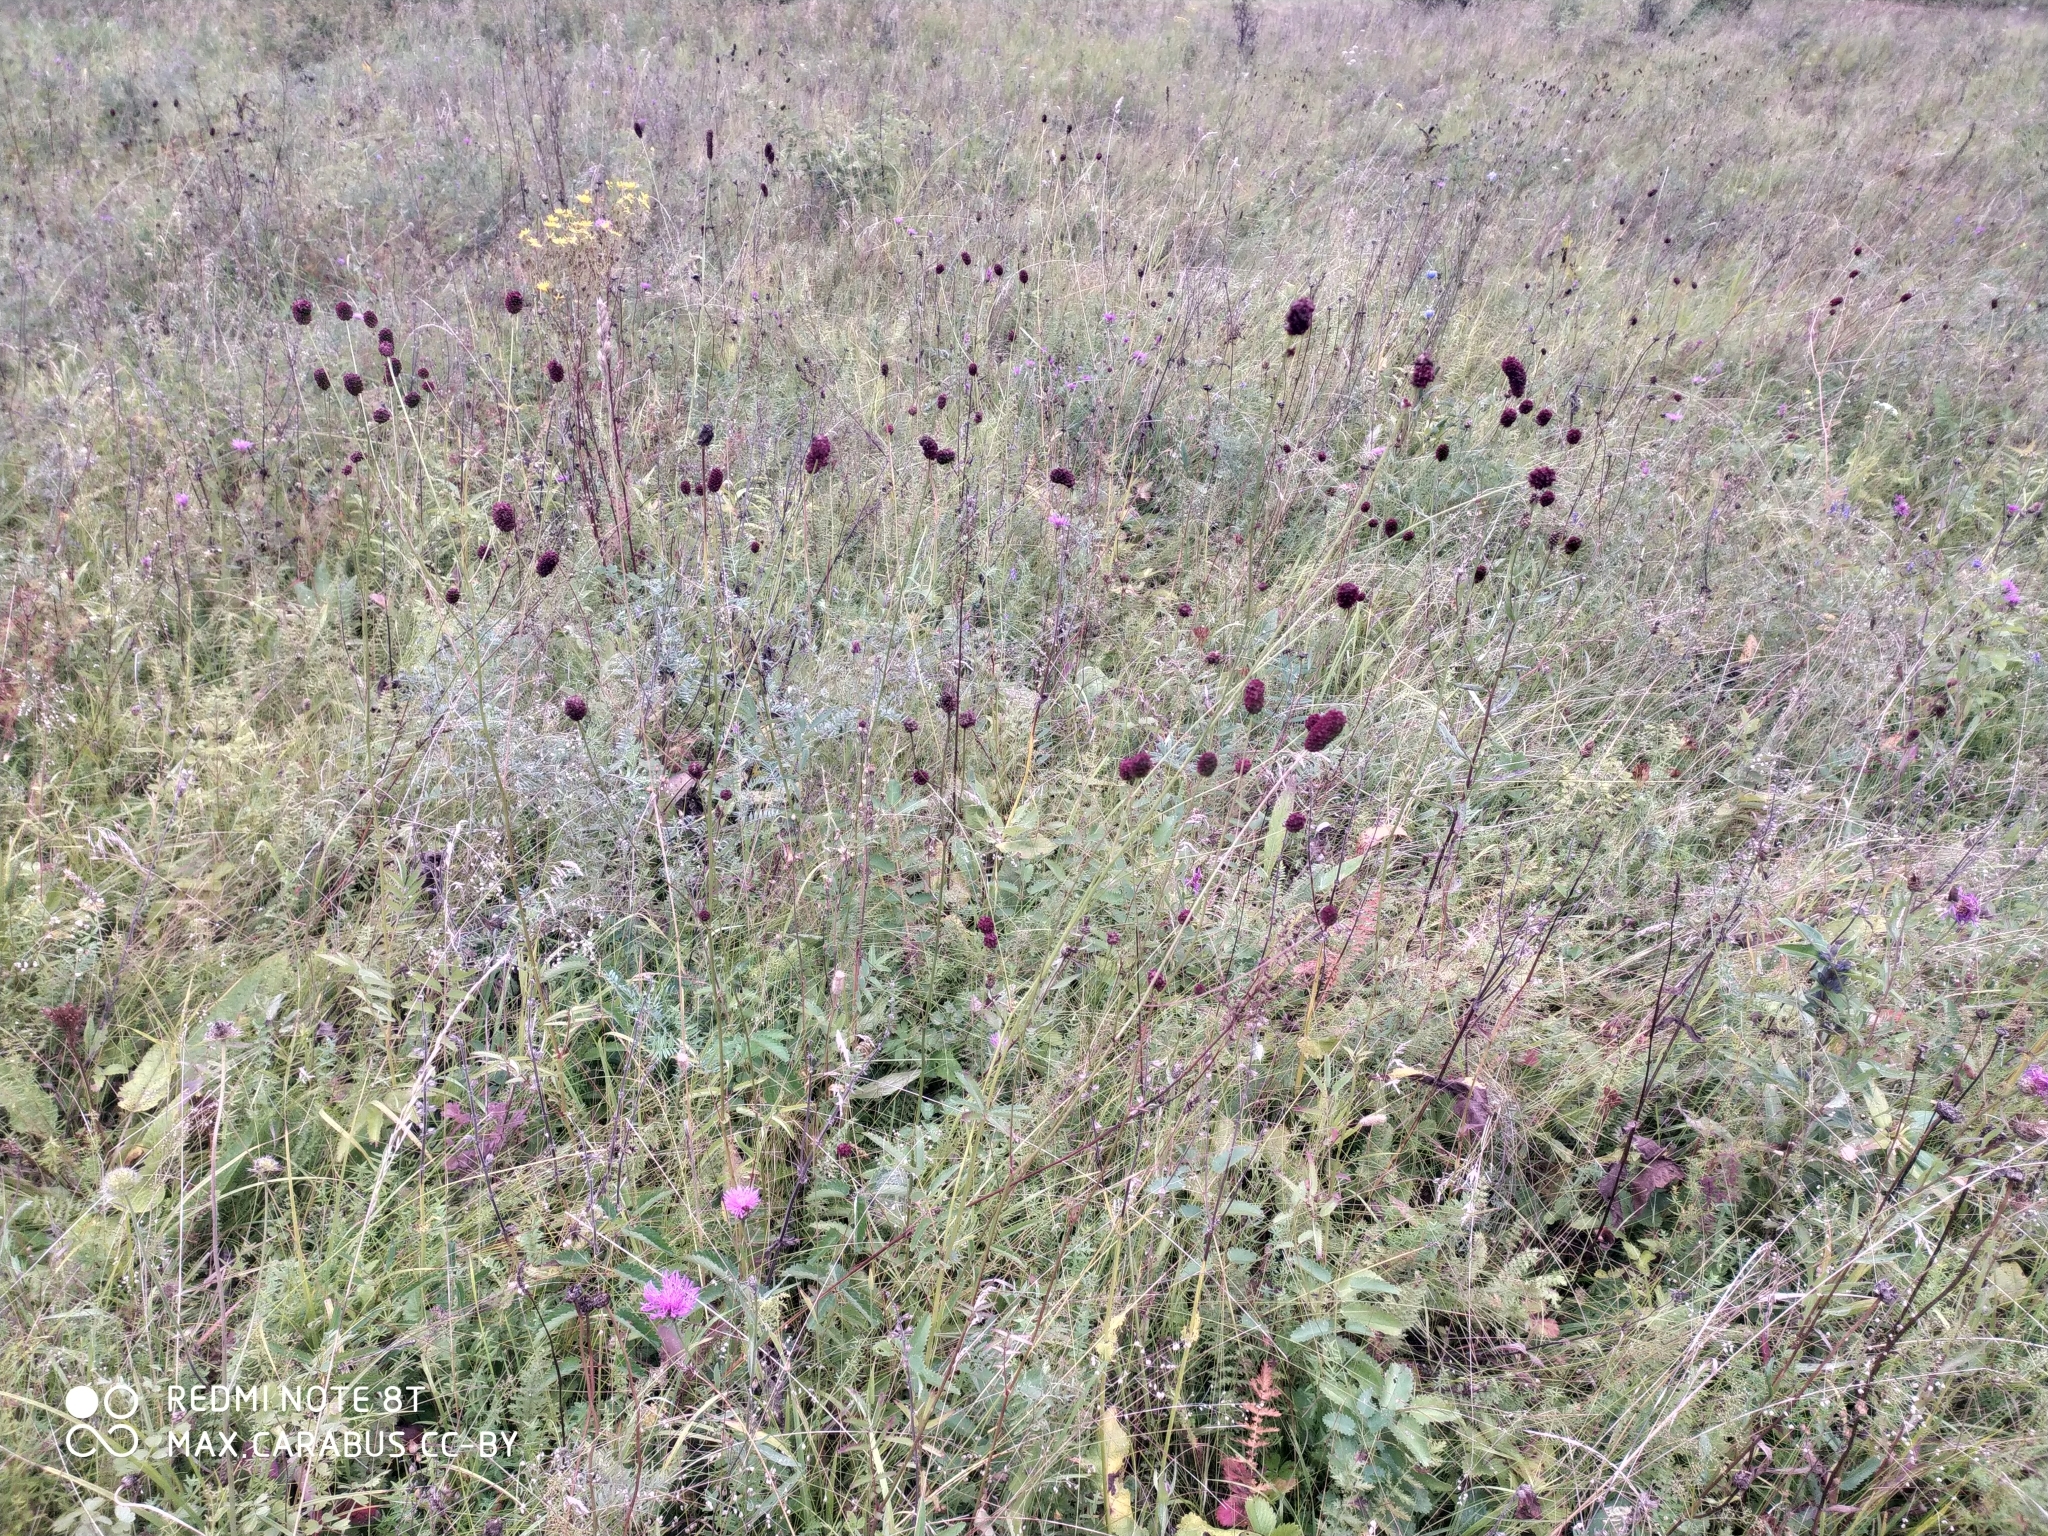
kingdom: Plantae
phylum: Tracheophyta
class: Magnoliopsida
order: Rosales
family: Rosaceae
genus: Sanguisorba
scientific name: Sanguisorba officinalis
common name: Great burnet
